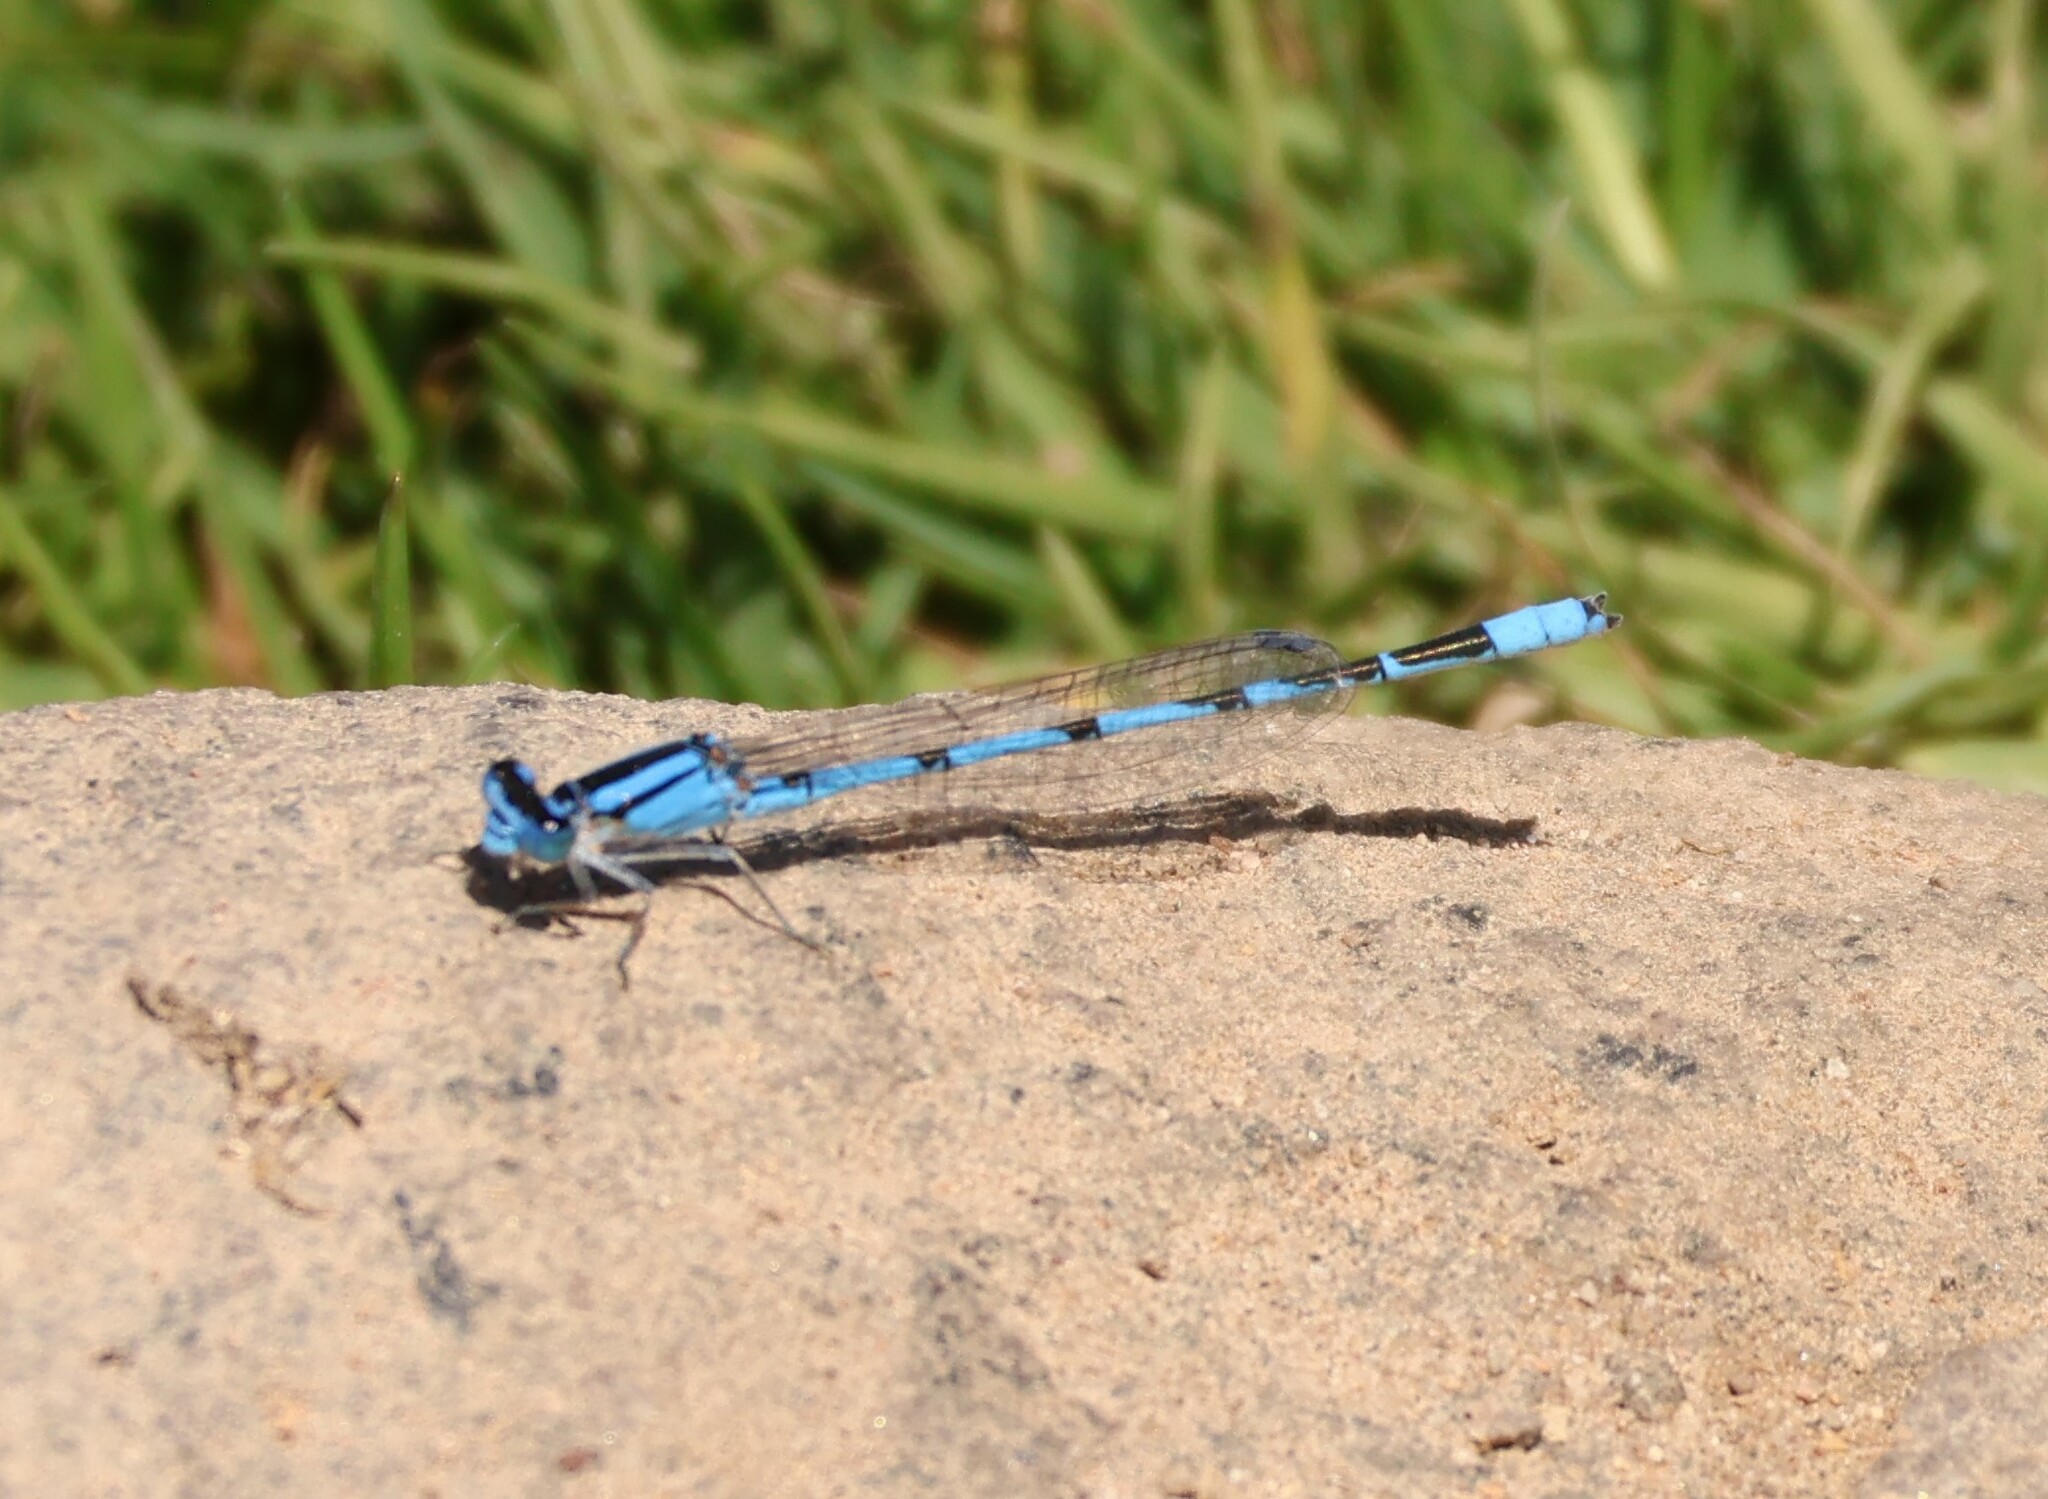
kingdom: Animalia
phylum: Arthropoda
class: Insecta
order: Odonata
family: Coenagrionidae
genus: Enallagma
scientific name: Enallagma civile
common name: Damselfly
